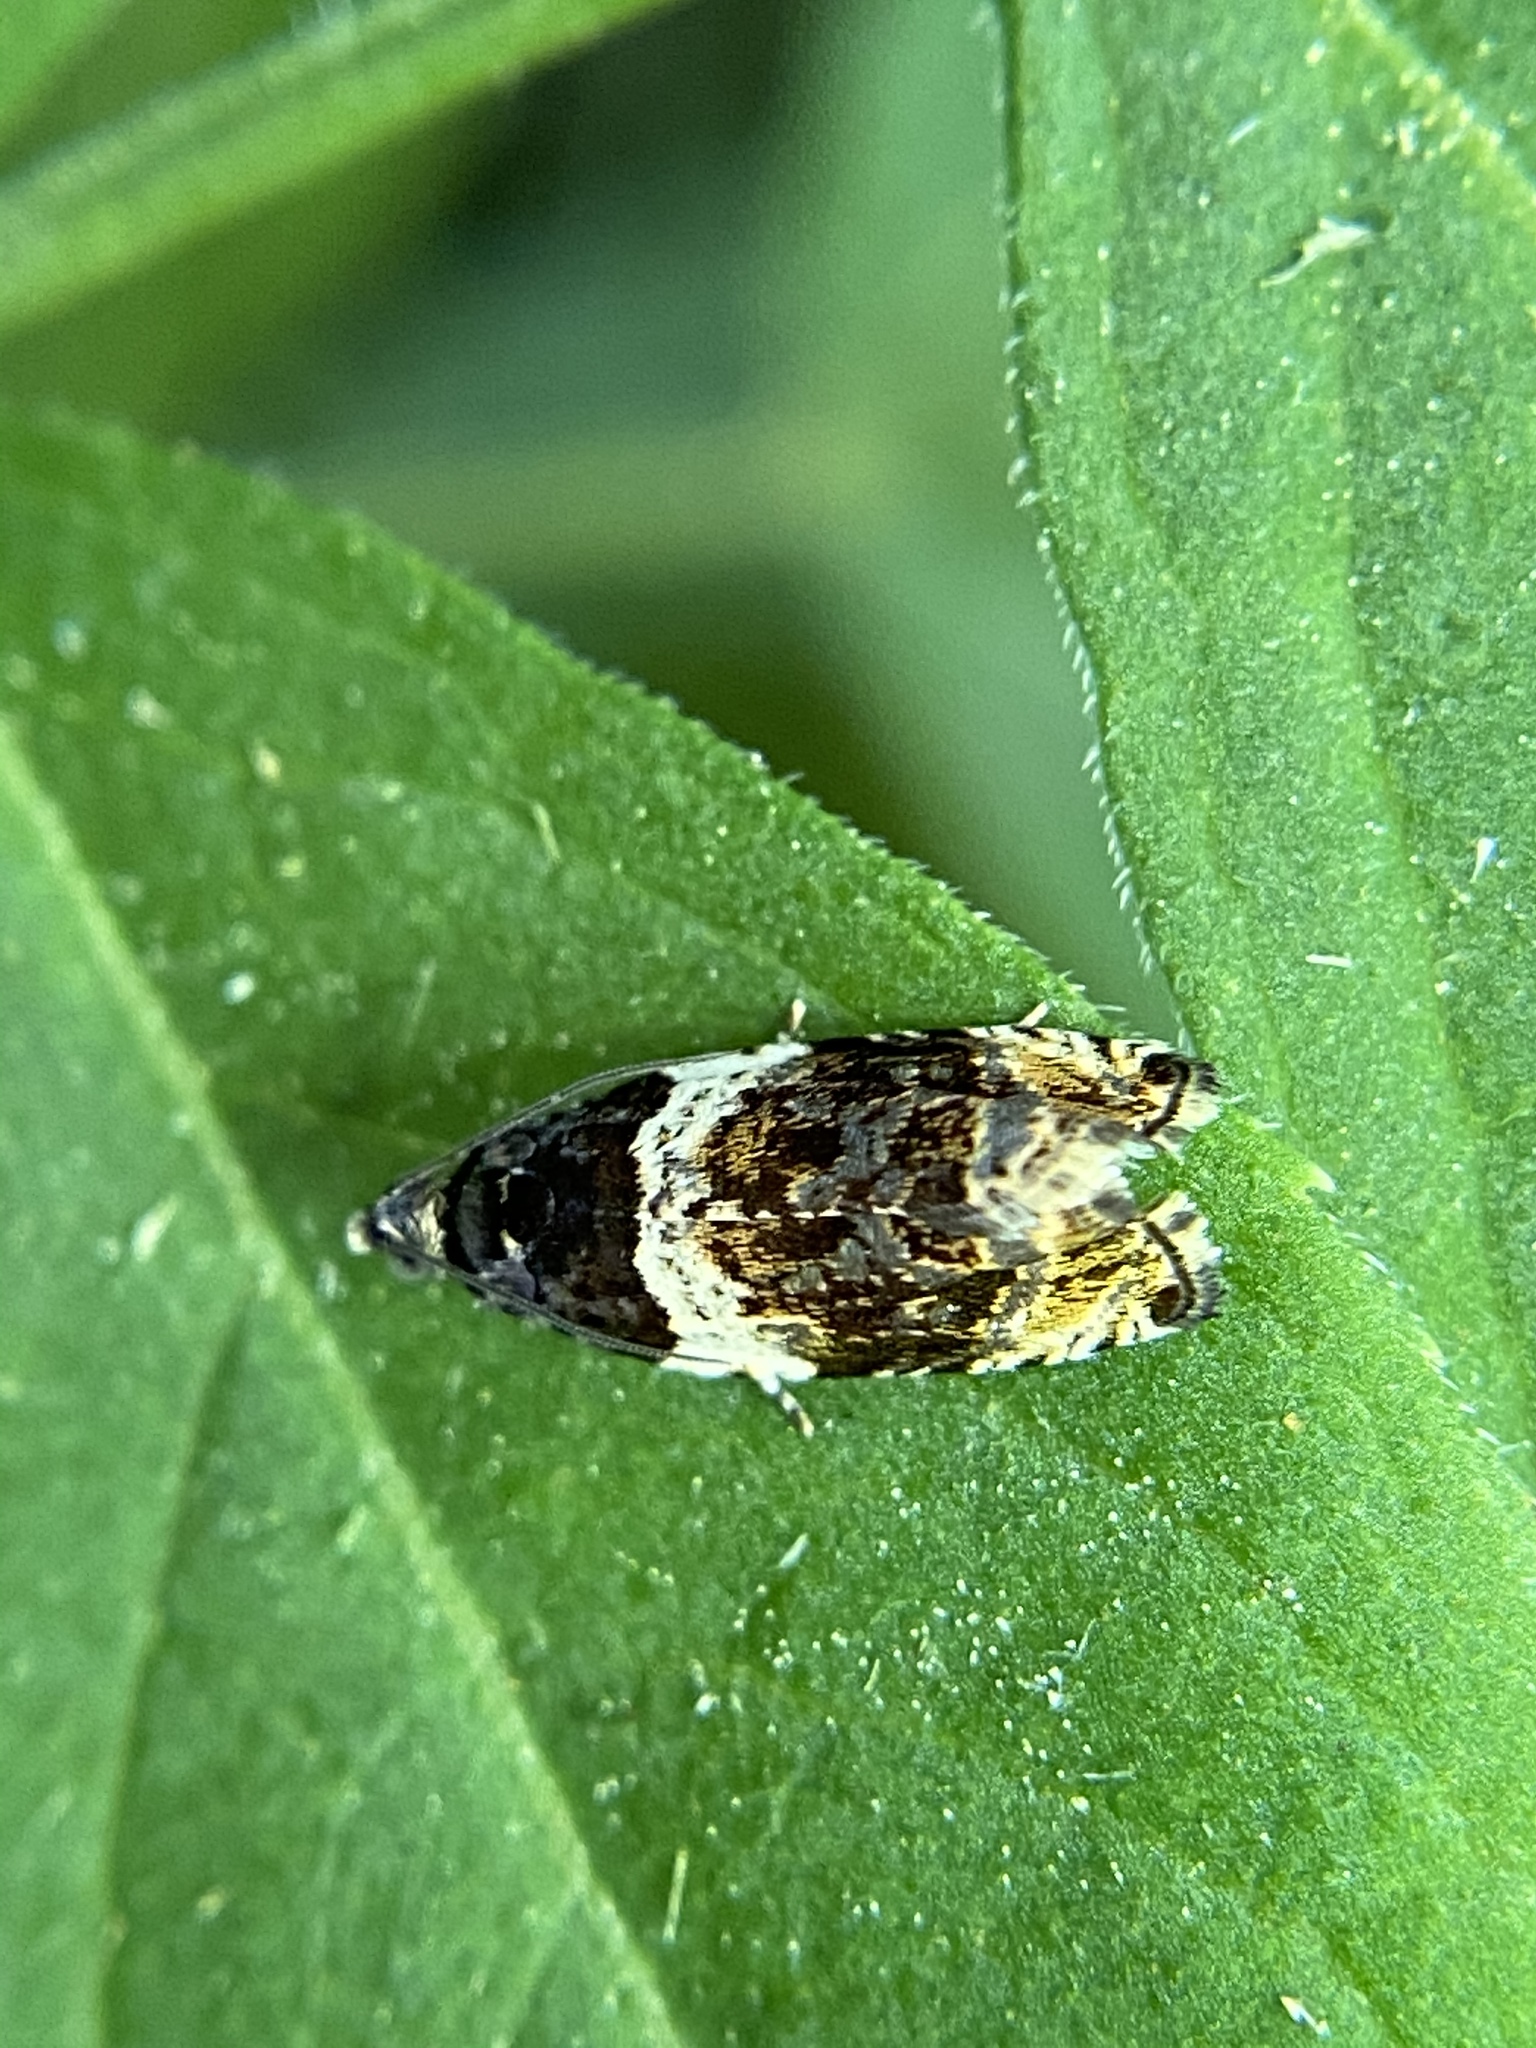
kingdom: Animalia
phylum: Arthropoda
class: Insecta
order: Lepidoptera
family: Tortricidae
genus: Olethreutes
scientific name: Olethreutes fasciatana
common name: Banded olethreutes moth
